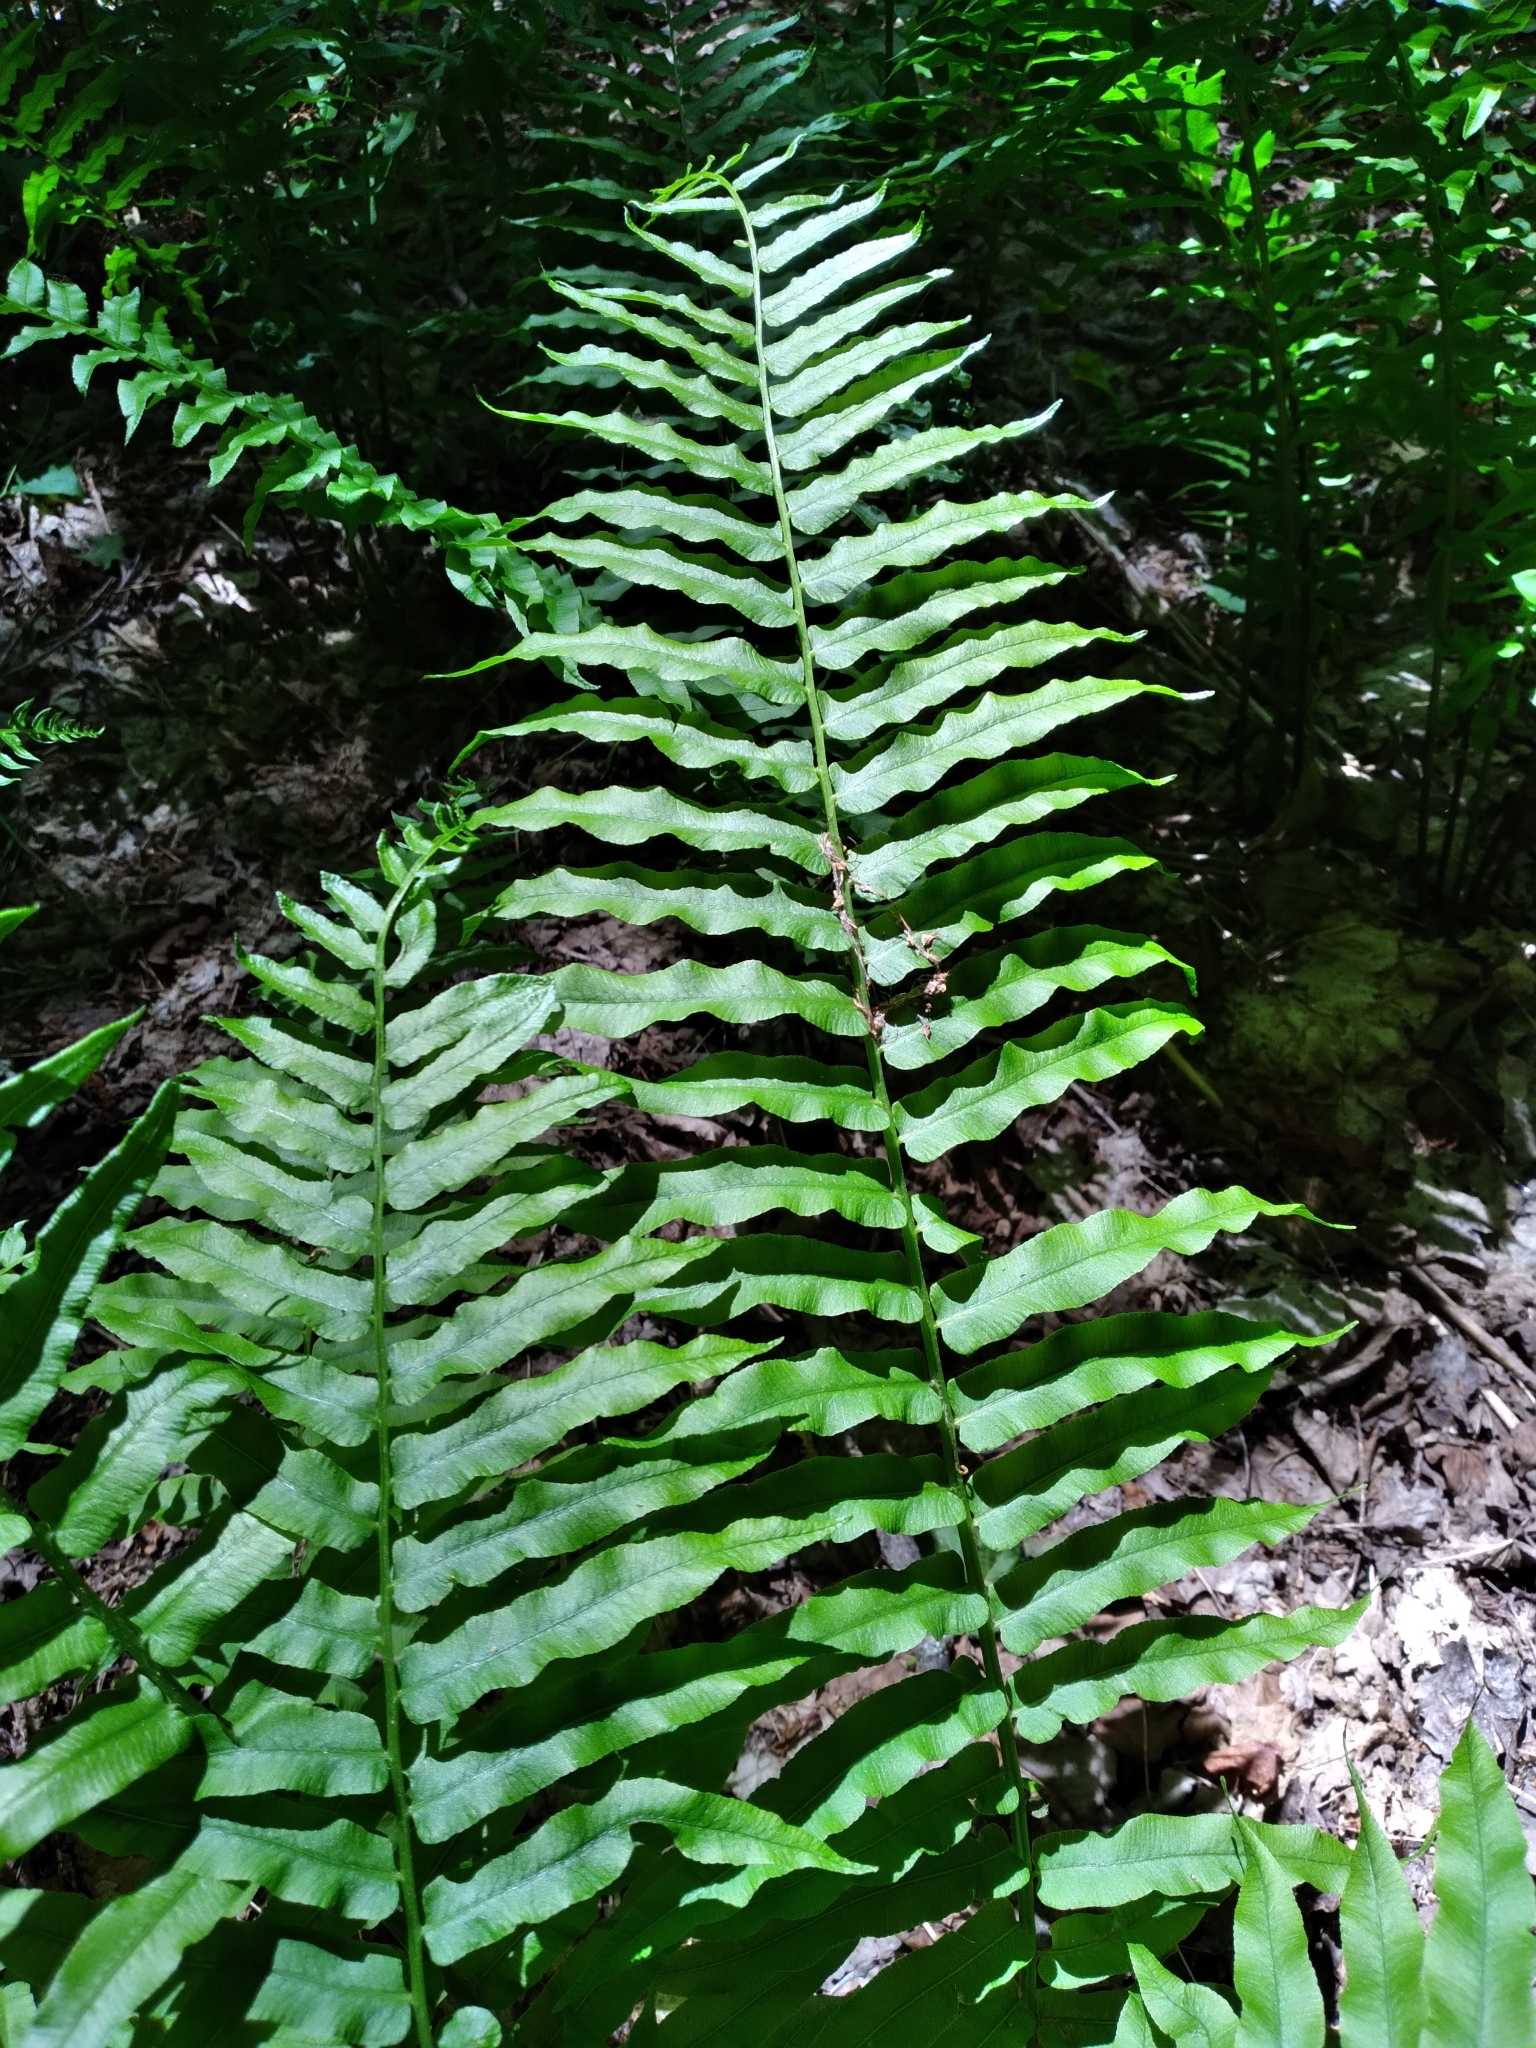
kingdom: Plantae
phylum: Tracheophyta
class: Polypodiopsida
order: Polypodiales
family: Diplaziopsidaceae
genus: Homalosorus
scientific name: Homalosorus pycnocarpos
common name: Glade fern
